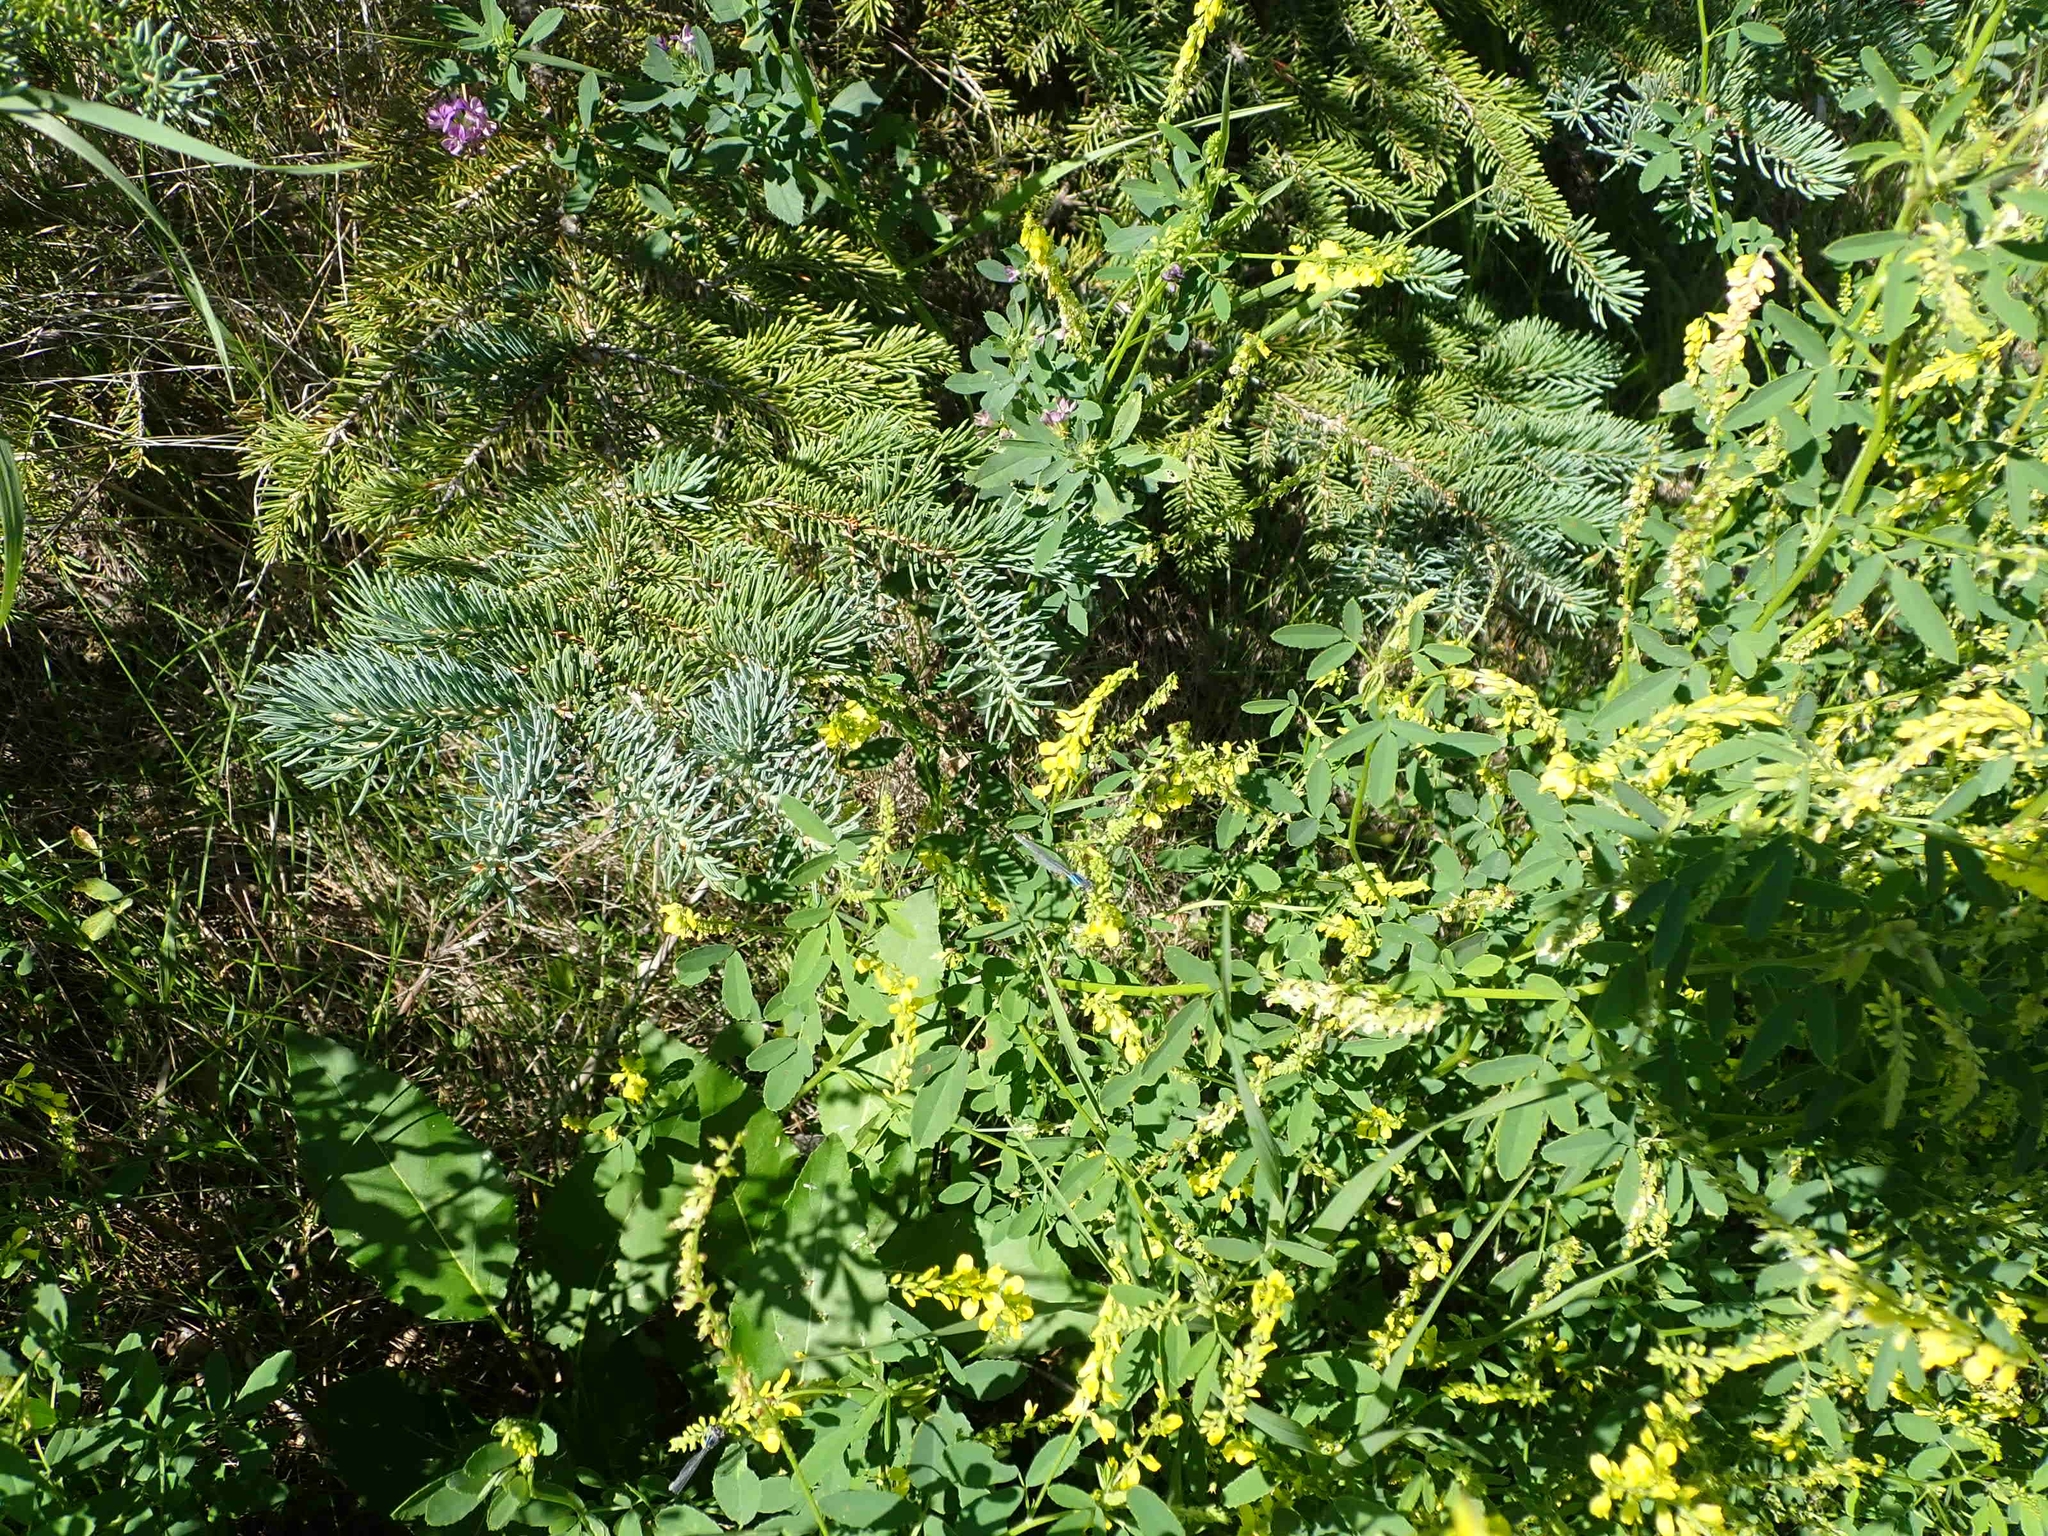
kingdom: Plantae
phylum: Tracheophyta
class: Pinopsida
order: Pinales
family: Pinaceae
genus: Picea
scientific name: Picea glauca
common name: White spruce
